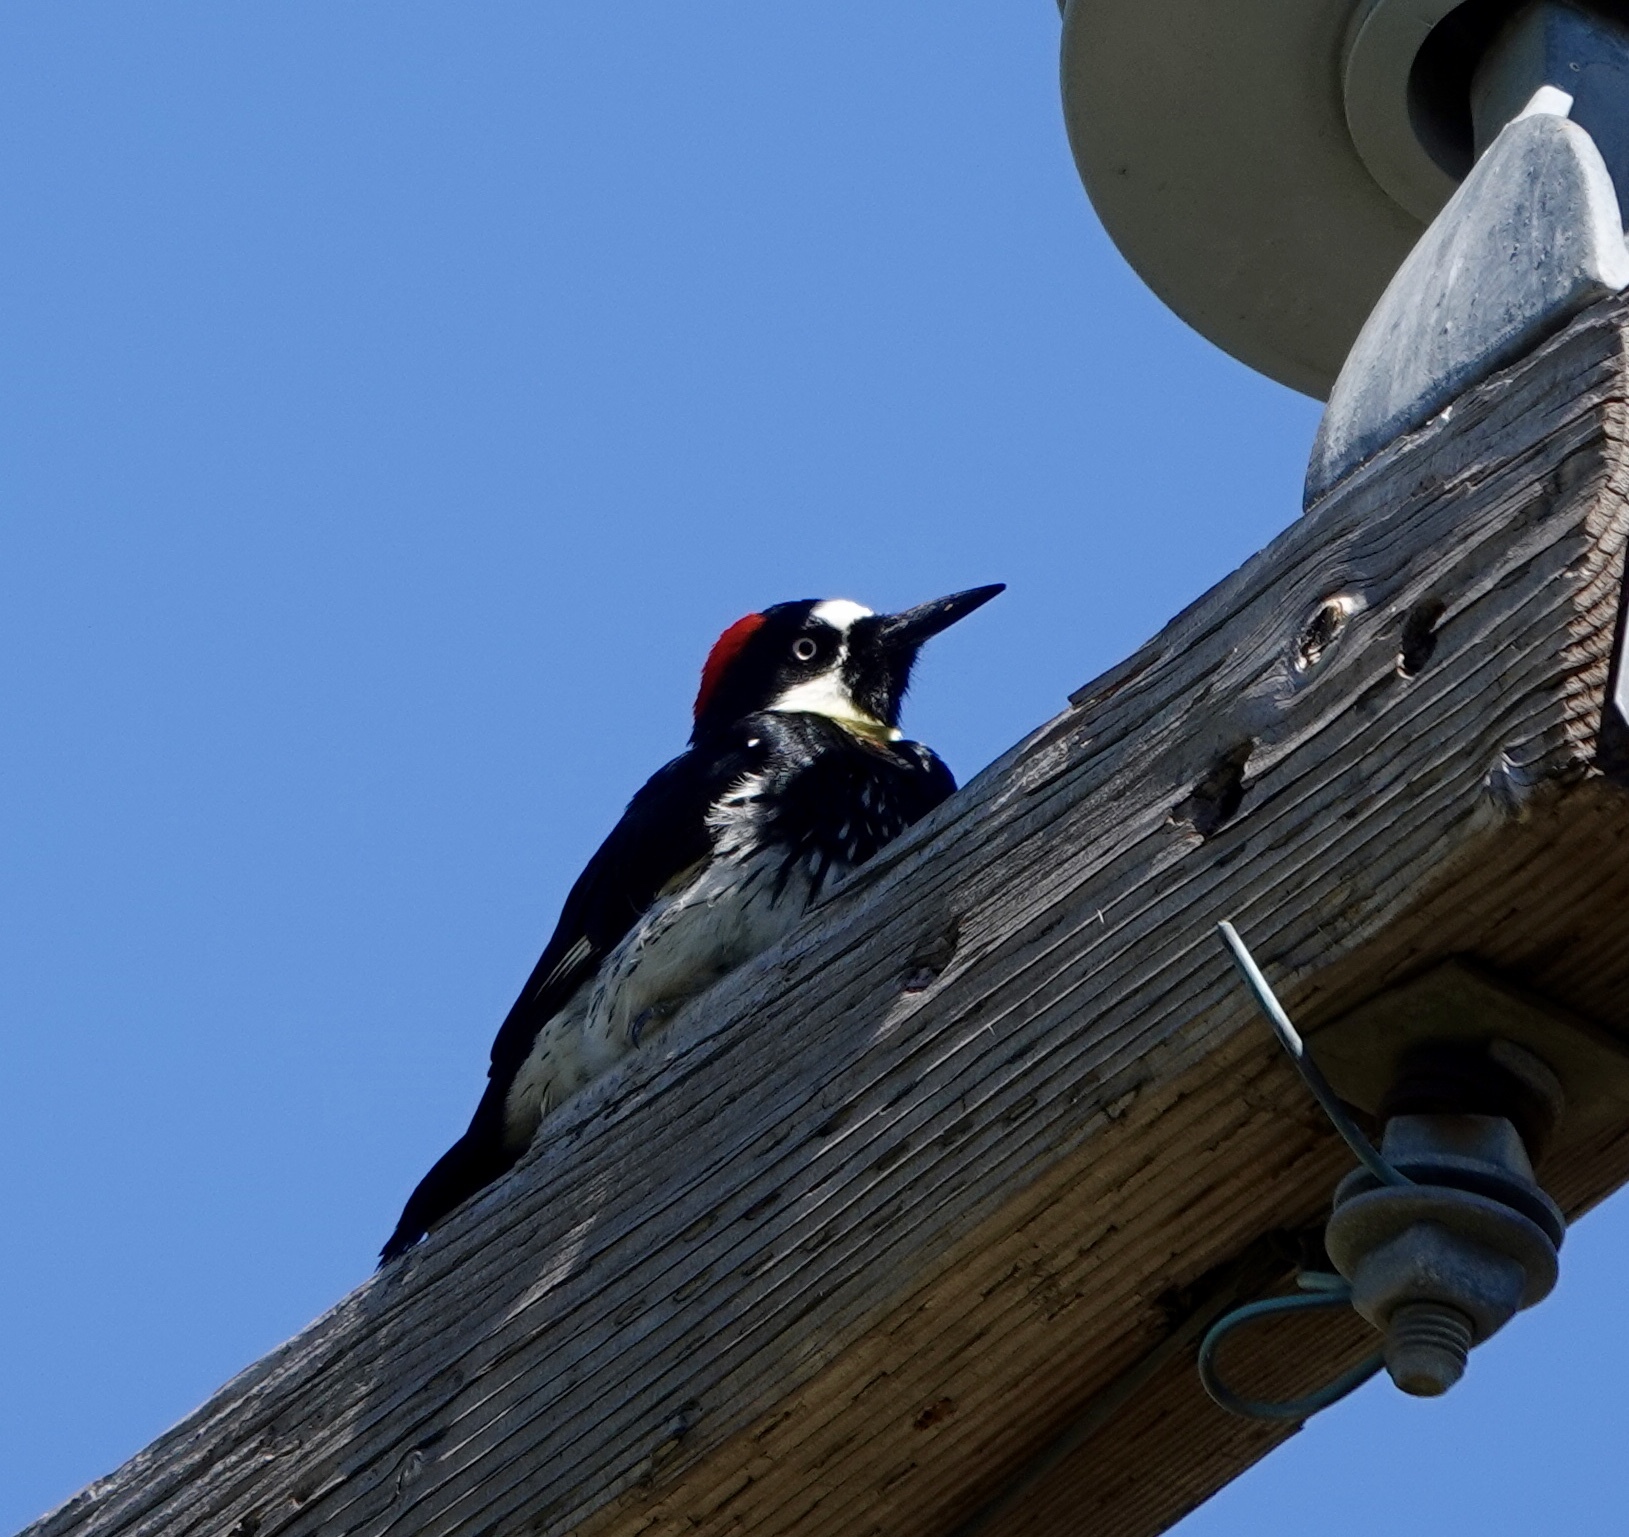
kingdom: Animalia
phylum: Chordata
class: Aves
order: Piciformes
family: Picidae
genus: Melanerpes
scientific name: Melanerpes formicivorus
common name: Acorn woodpecker
